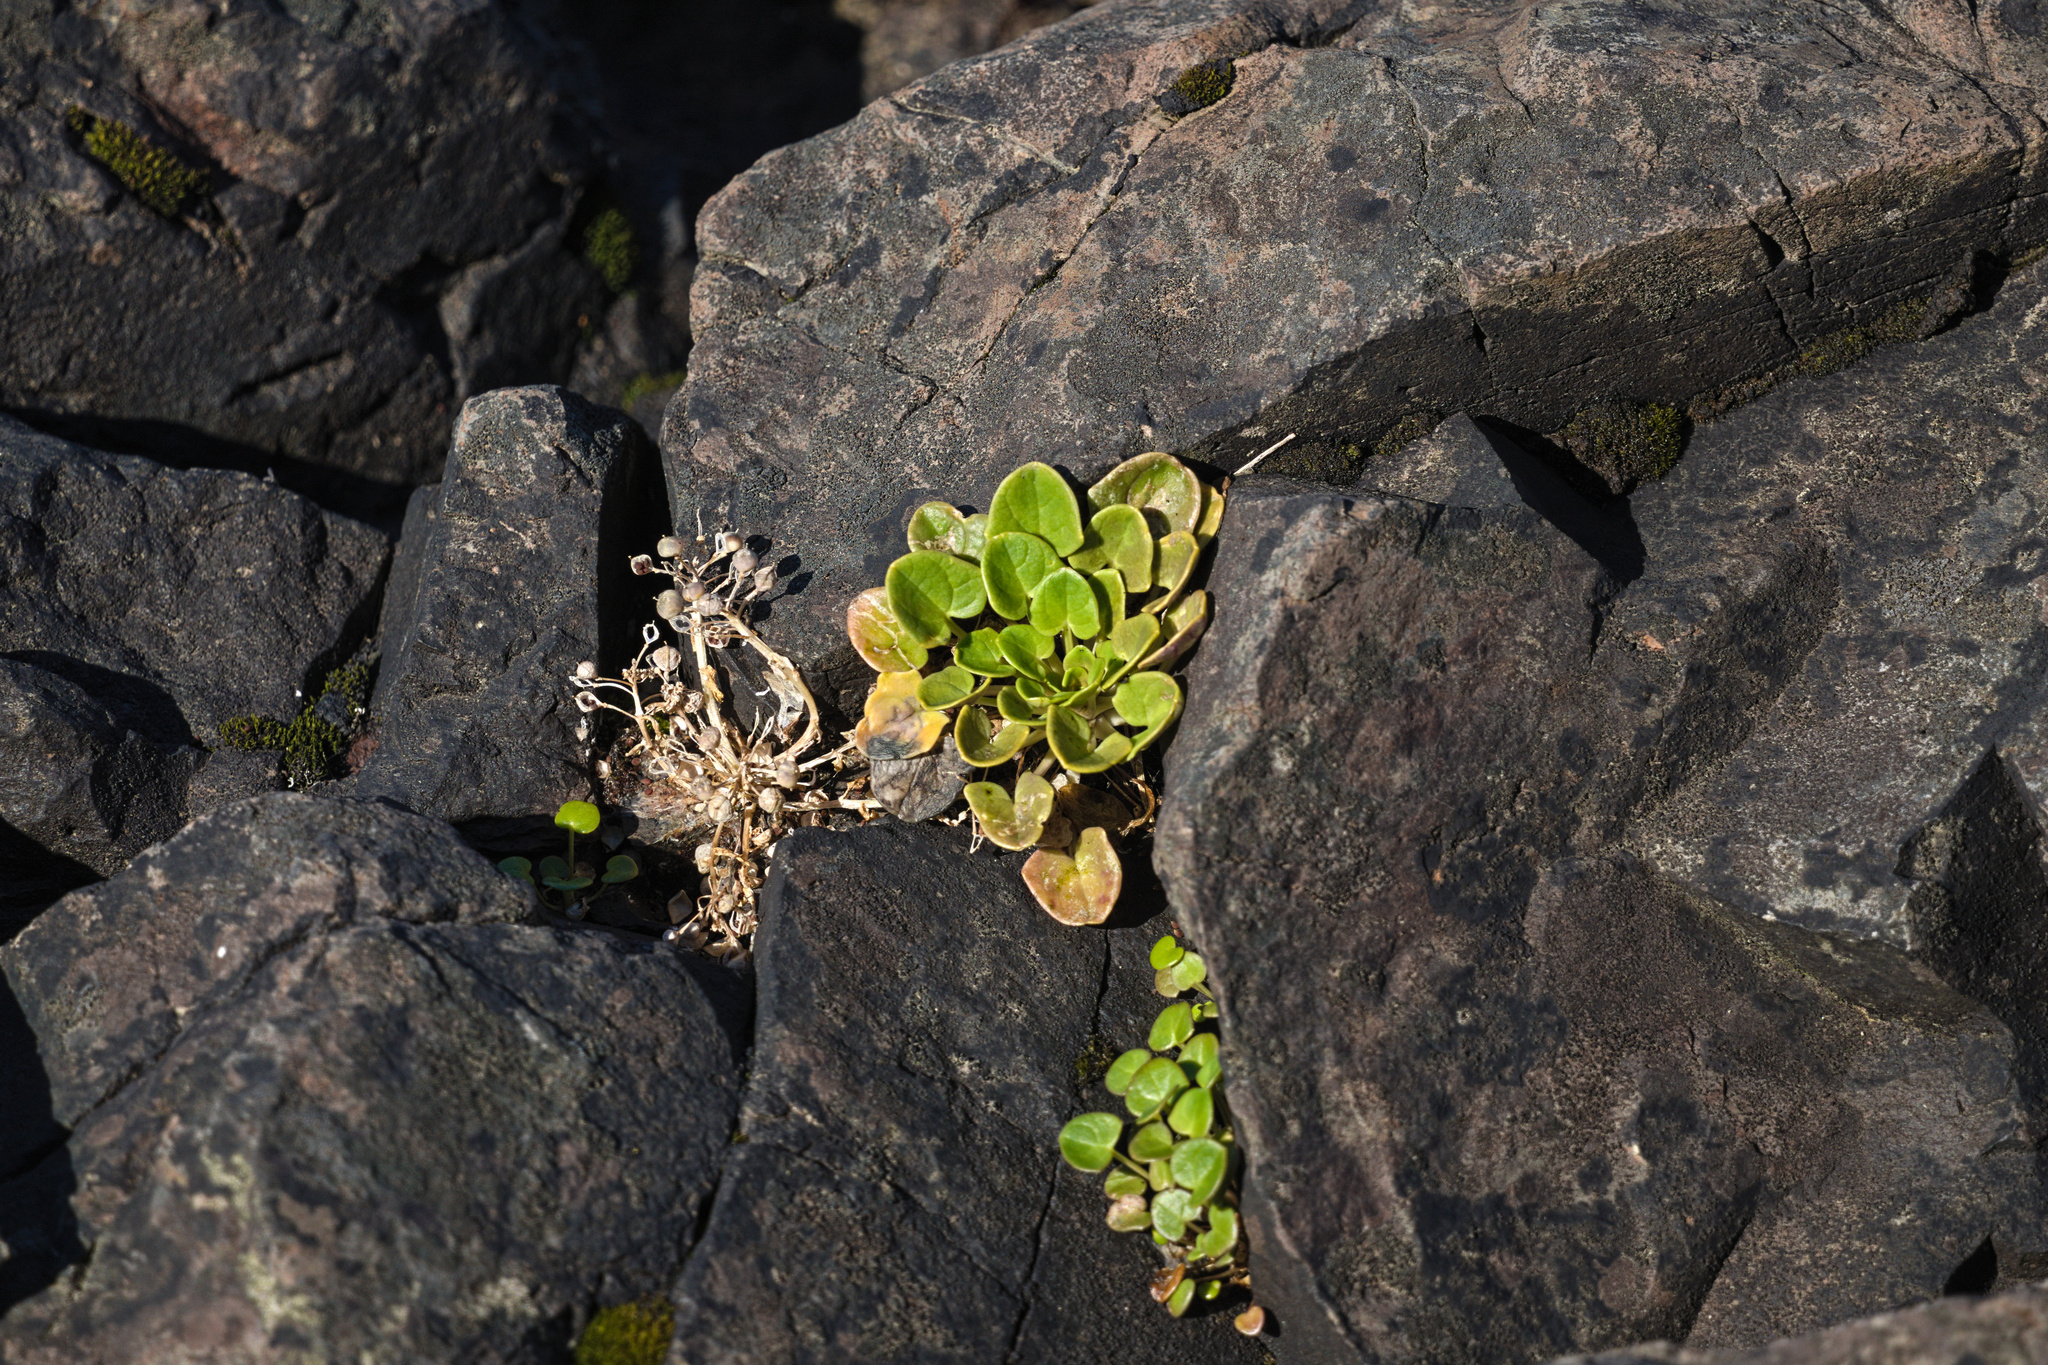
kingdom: Plantae
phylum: Tracheophyta
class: Magnoliopsida
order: Brassicales
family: Brassicaceae
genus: Cochlearia
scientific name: Cochlearia officinalis
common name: Scurvy-grass
